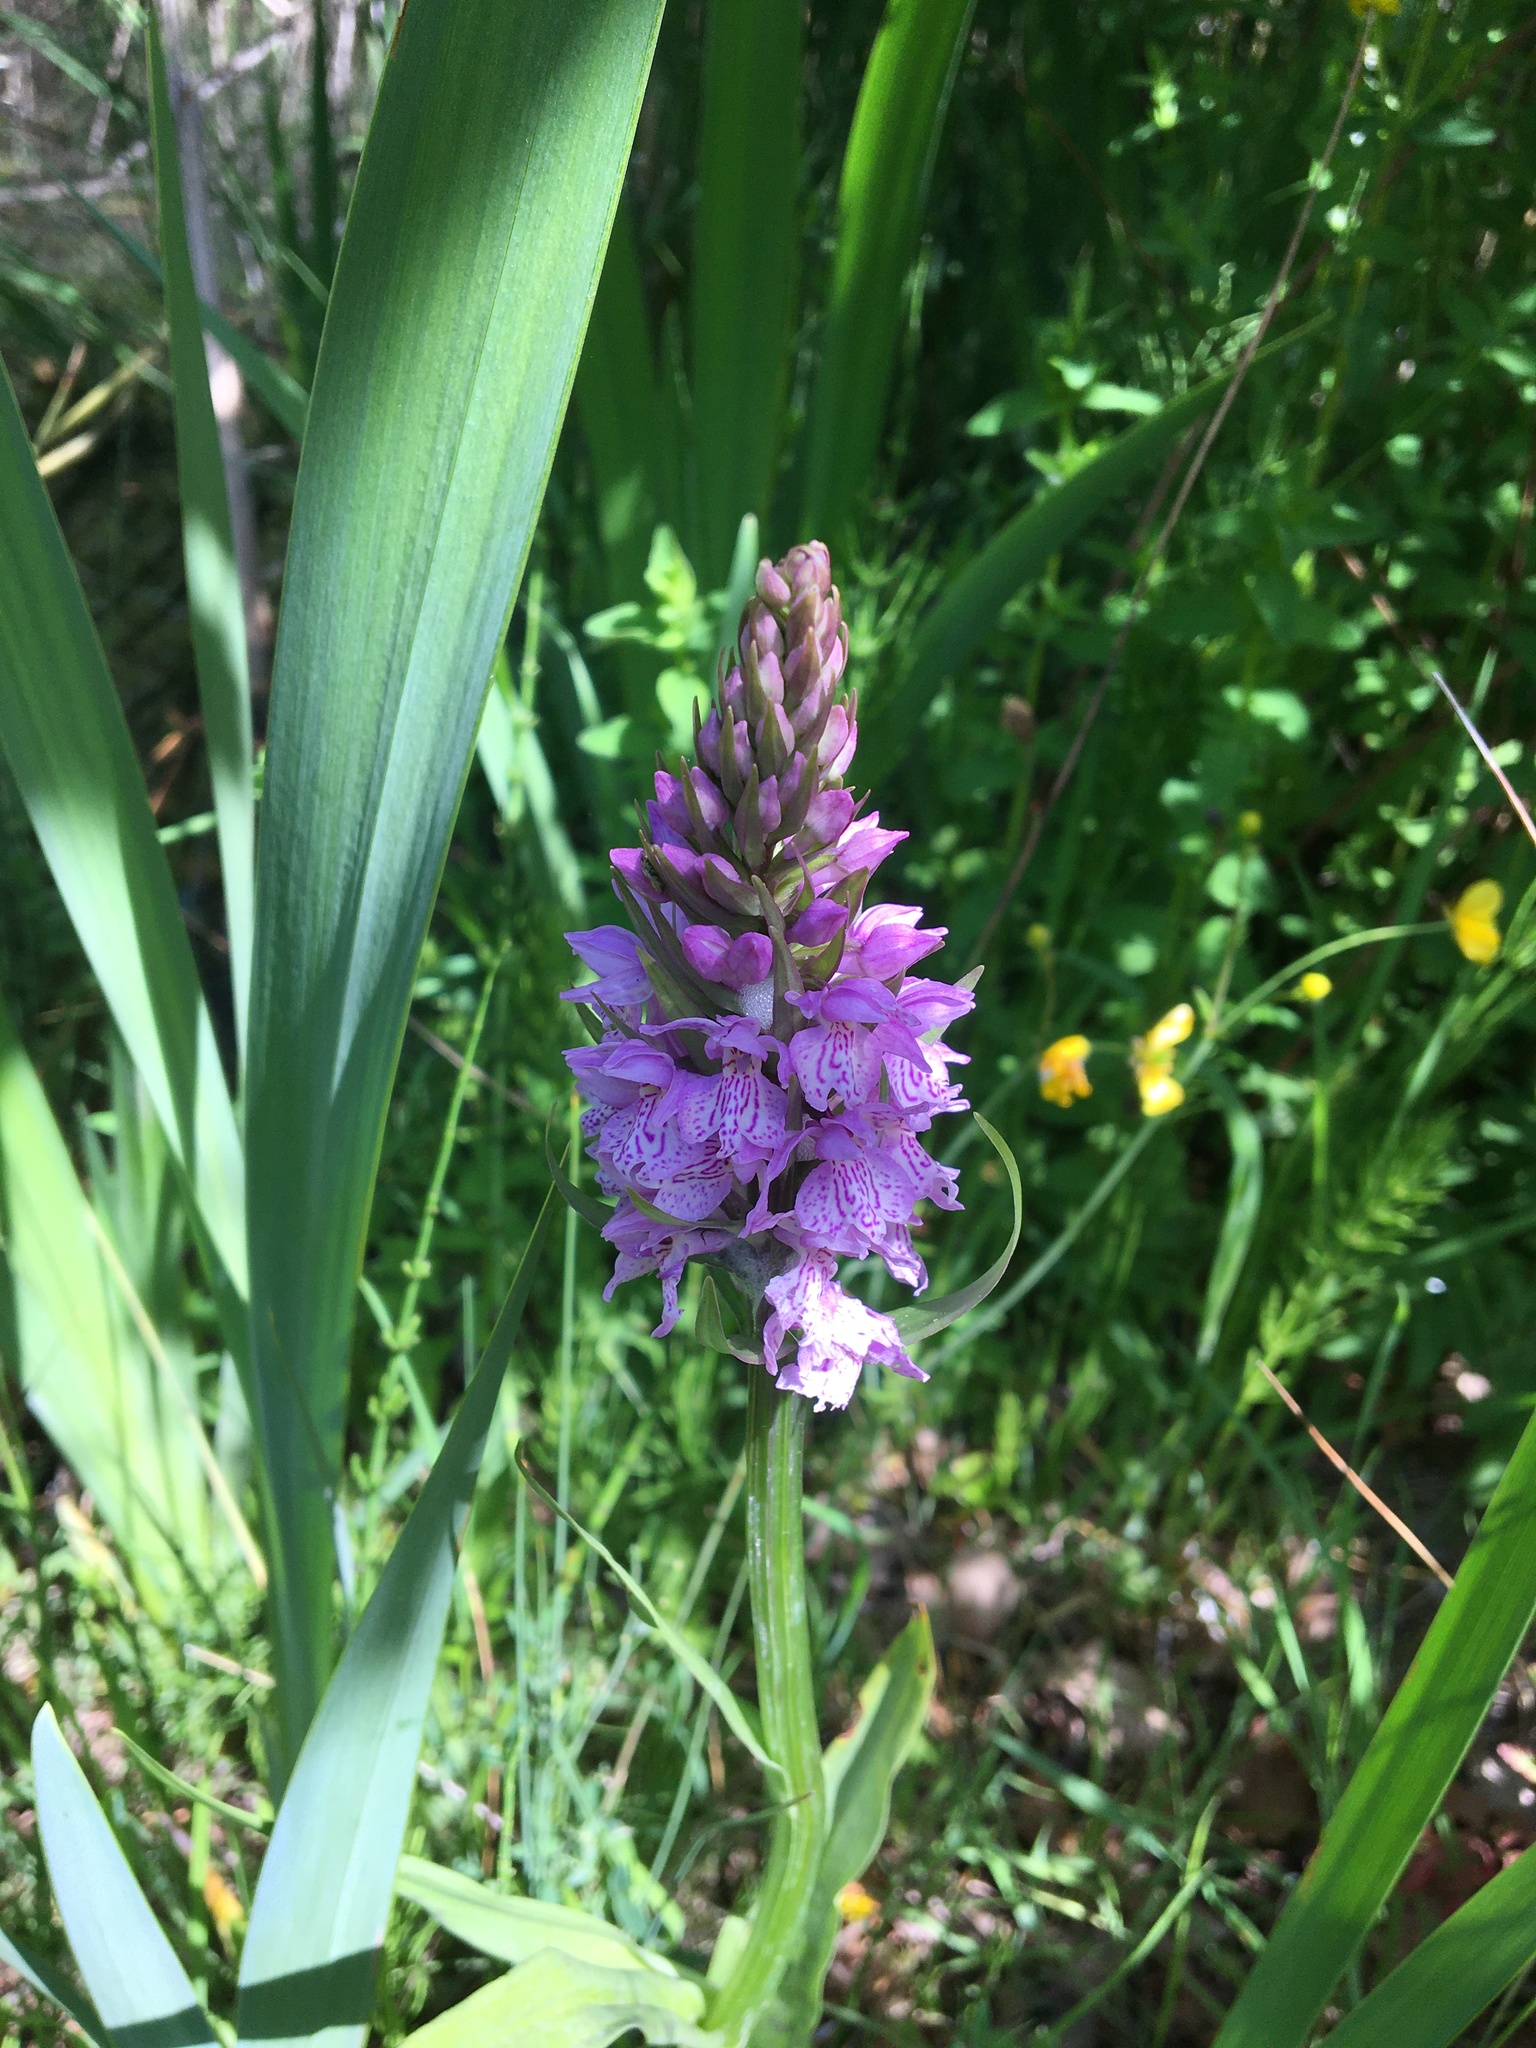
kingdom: Plantae
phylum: Tracheophyta
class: Liliopsida
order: Asparagales
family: Orchidaceae
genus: Dactylorhiza
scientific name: Dactylorhiza maculata
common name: Heath spotted-orchid
